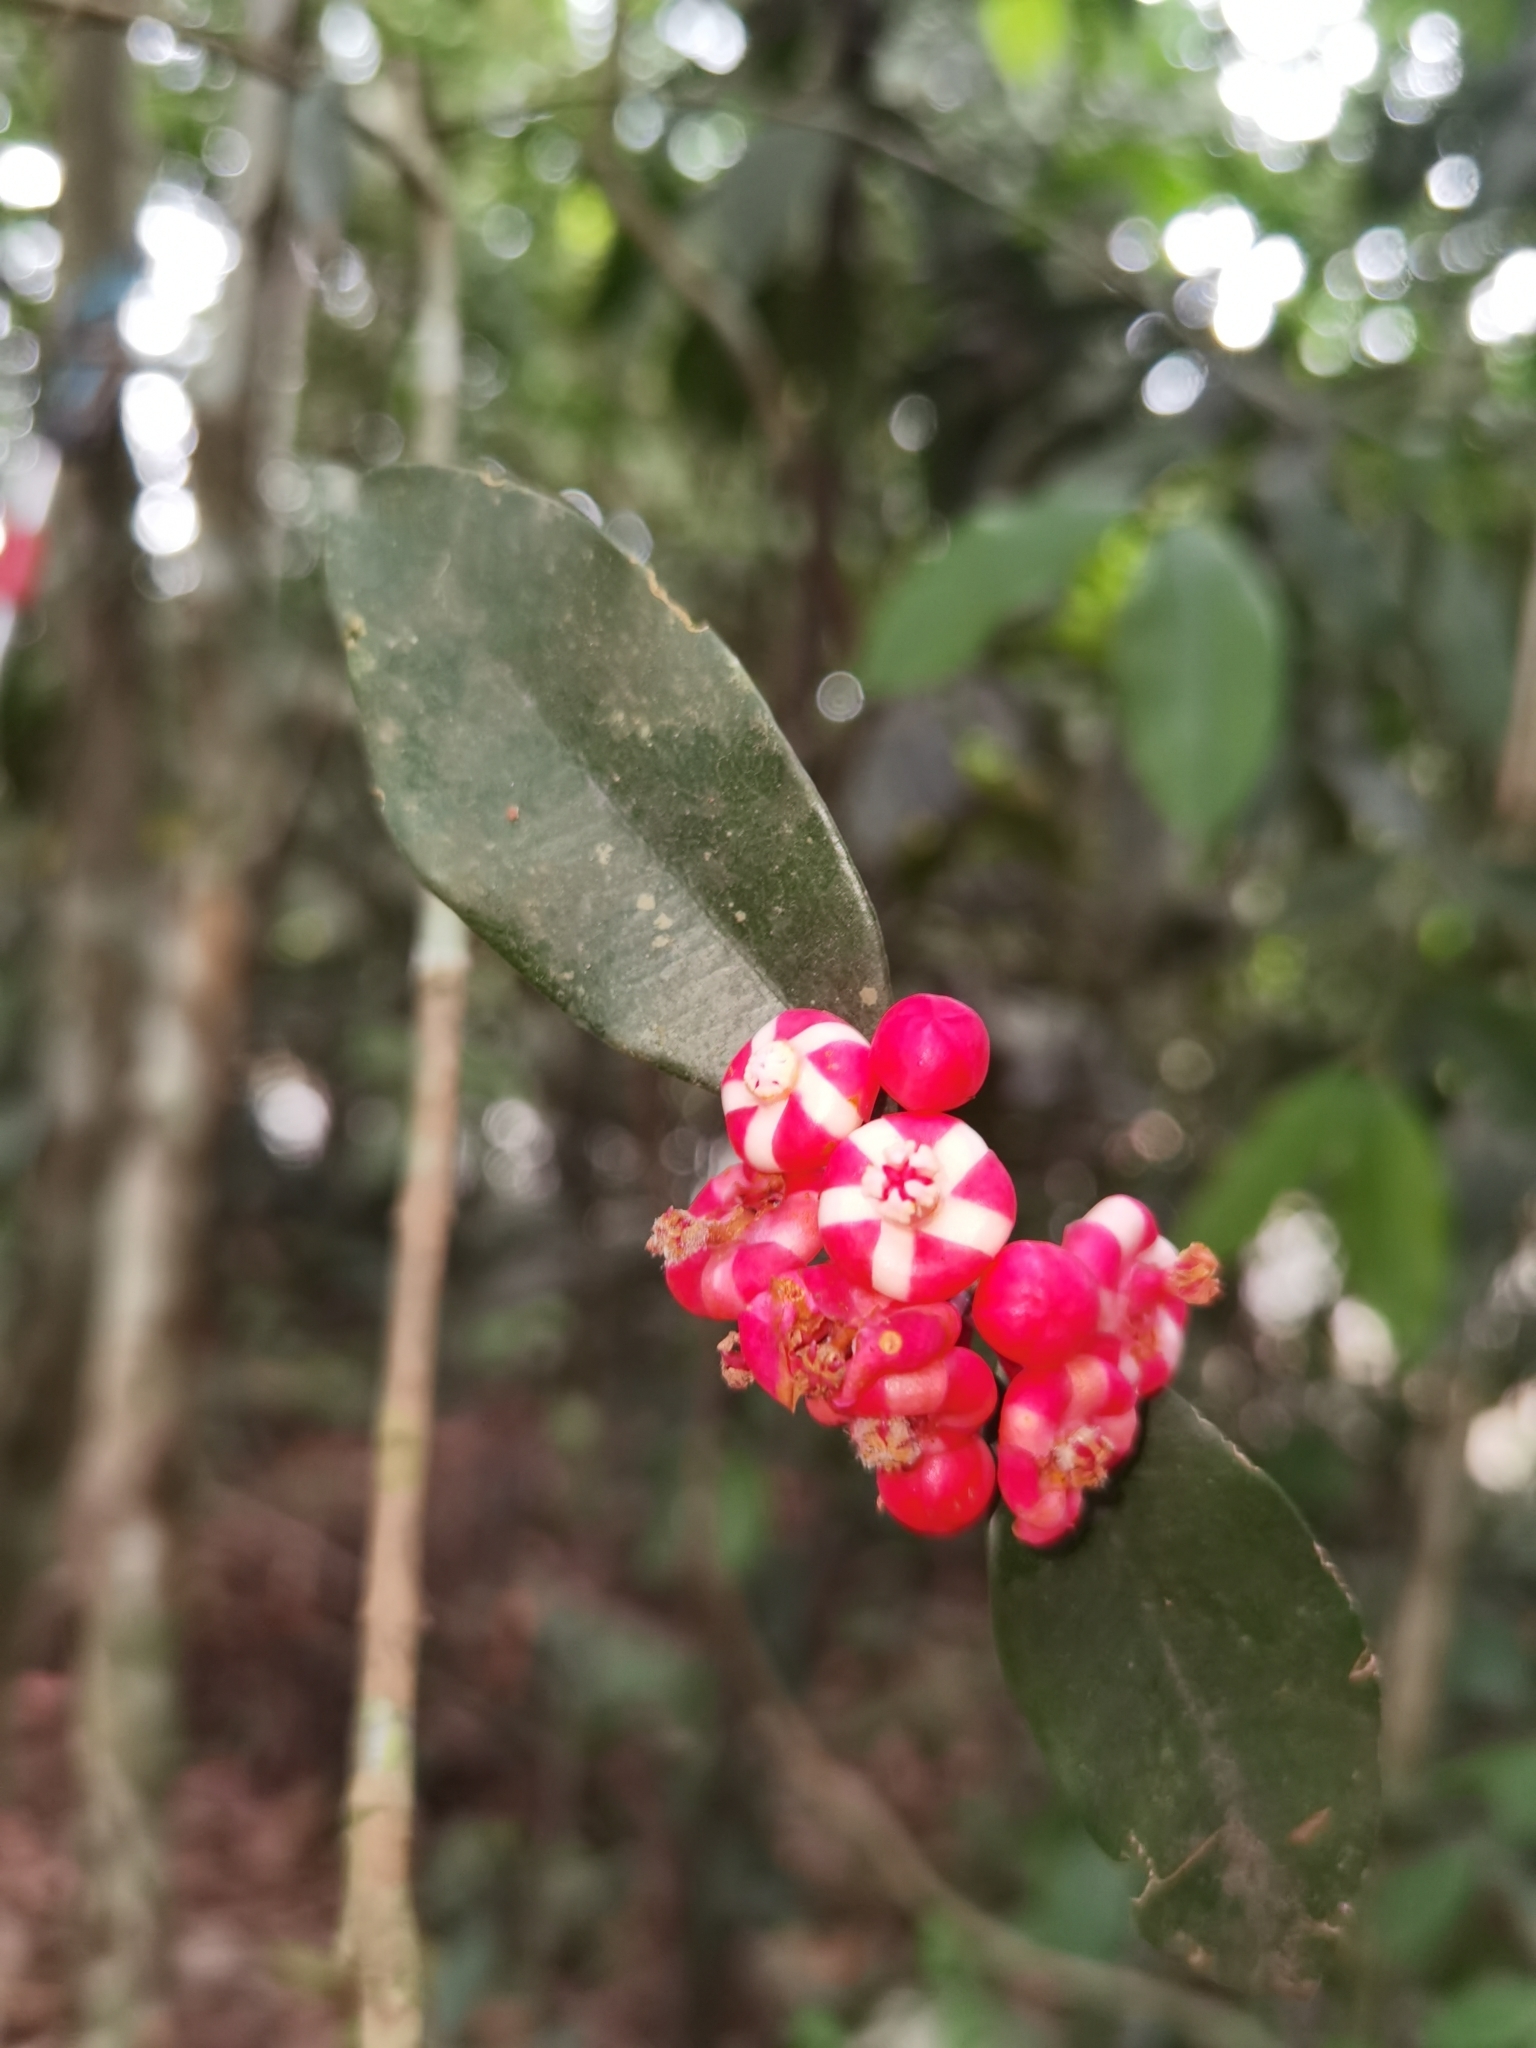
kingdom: Plantae
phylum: Tracheophyta
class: Magnoliopsida
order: Malpighiales
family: Clusiaceae
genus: Symphonia
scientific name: Symphonia globulifera
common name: Boarwood
